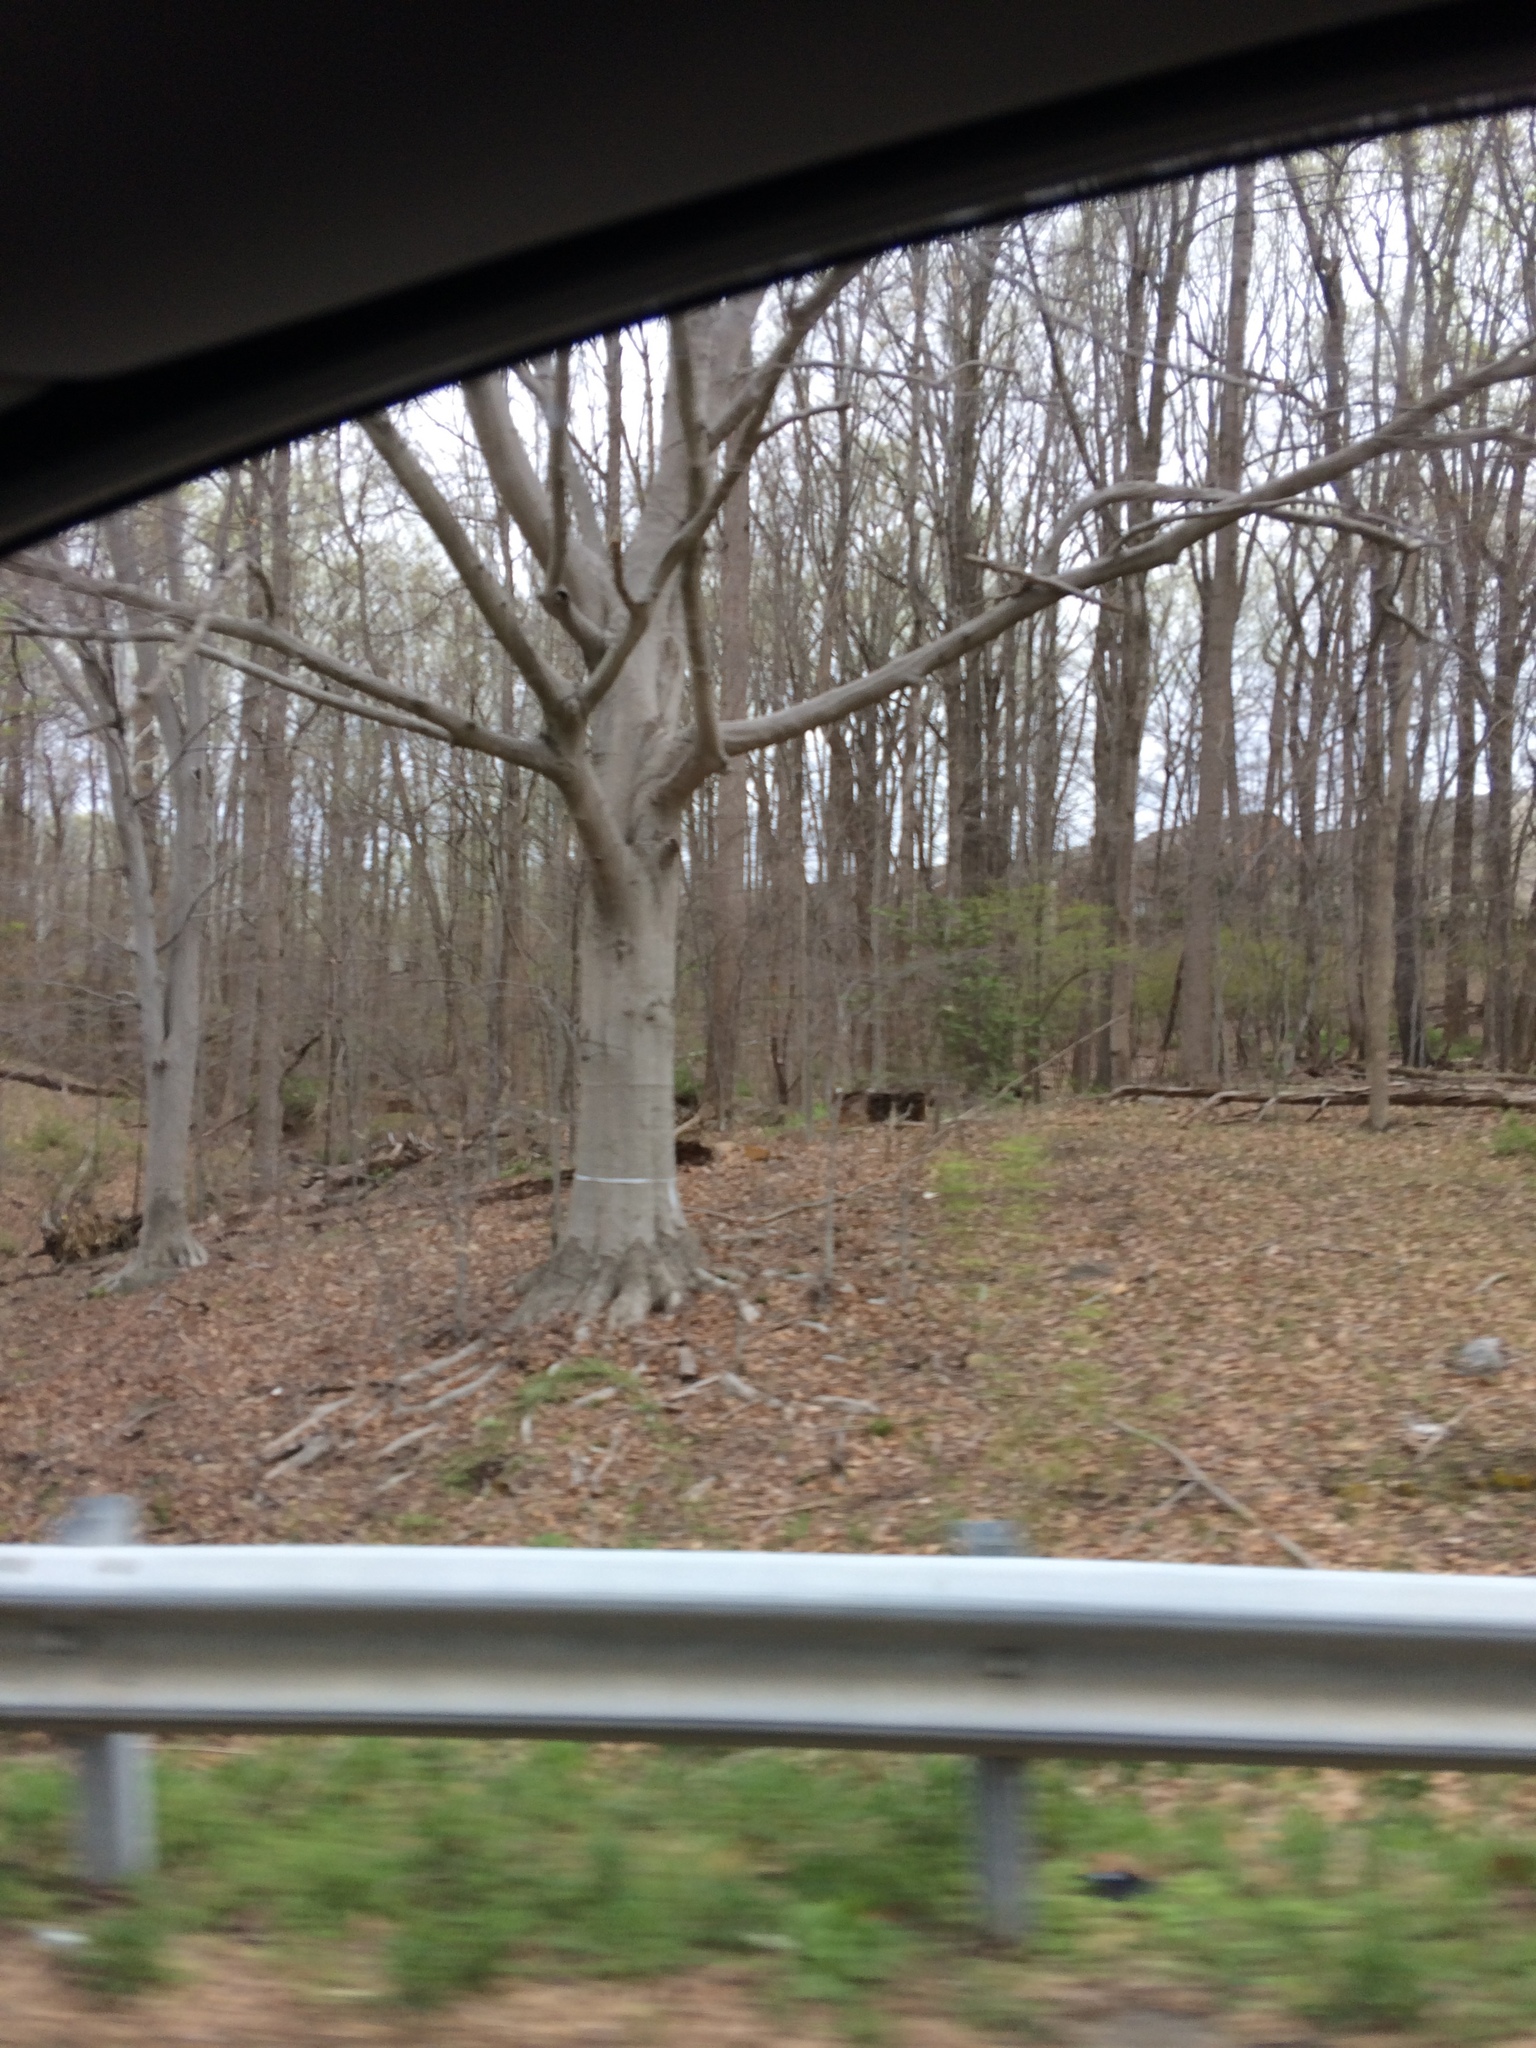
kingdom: Plantae
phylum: Tracheophyta
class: Magnoliopsida
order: Fagales
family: Fagaceae
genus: Fagus
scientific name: Fagus grandifolia
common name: American beech
